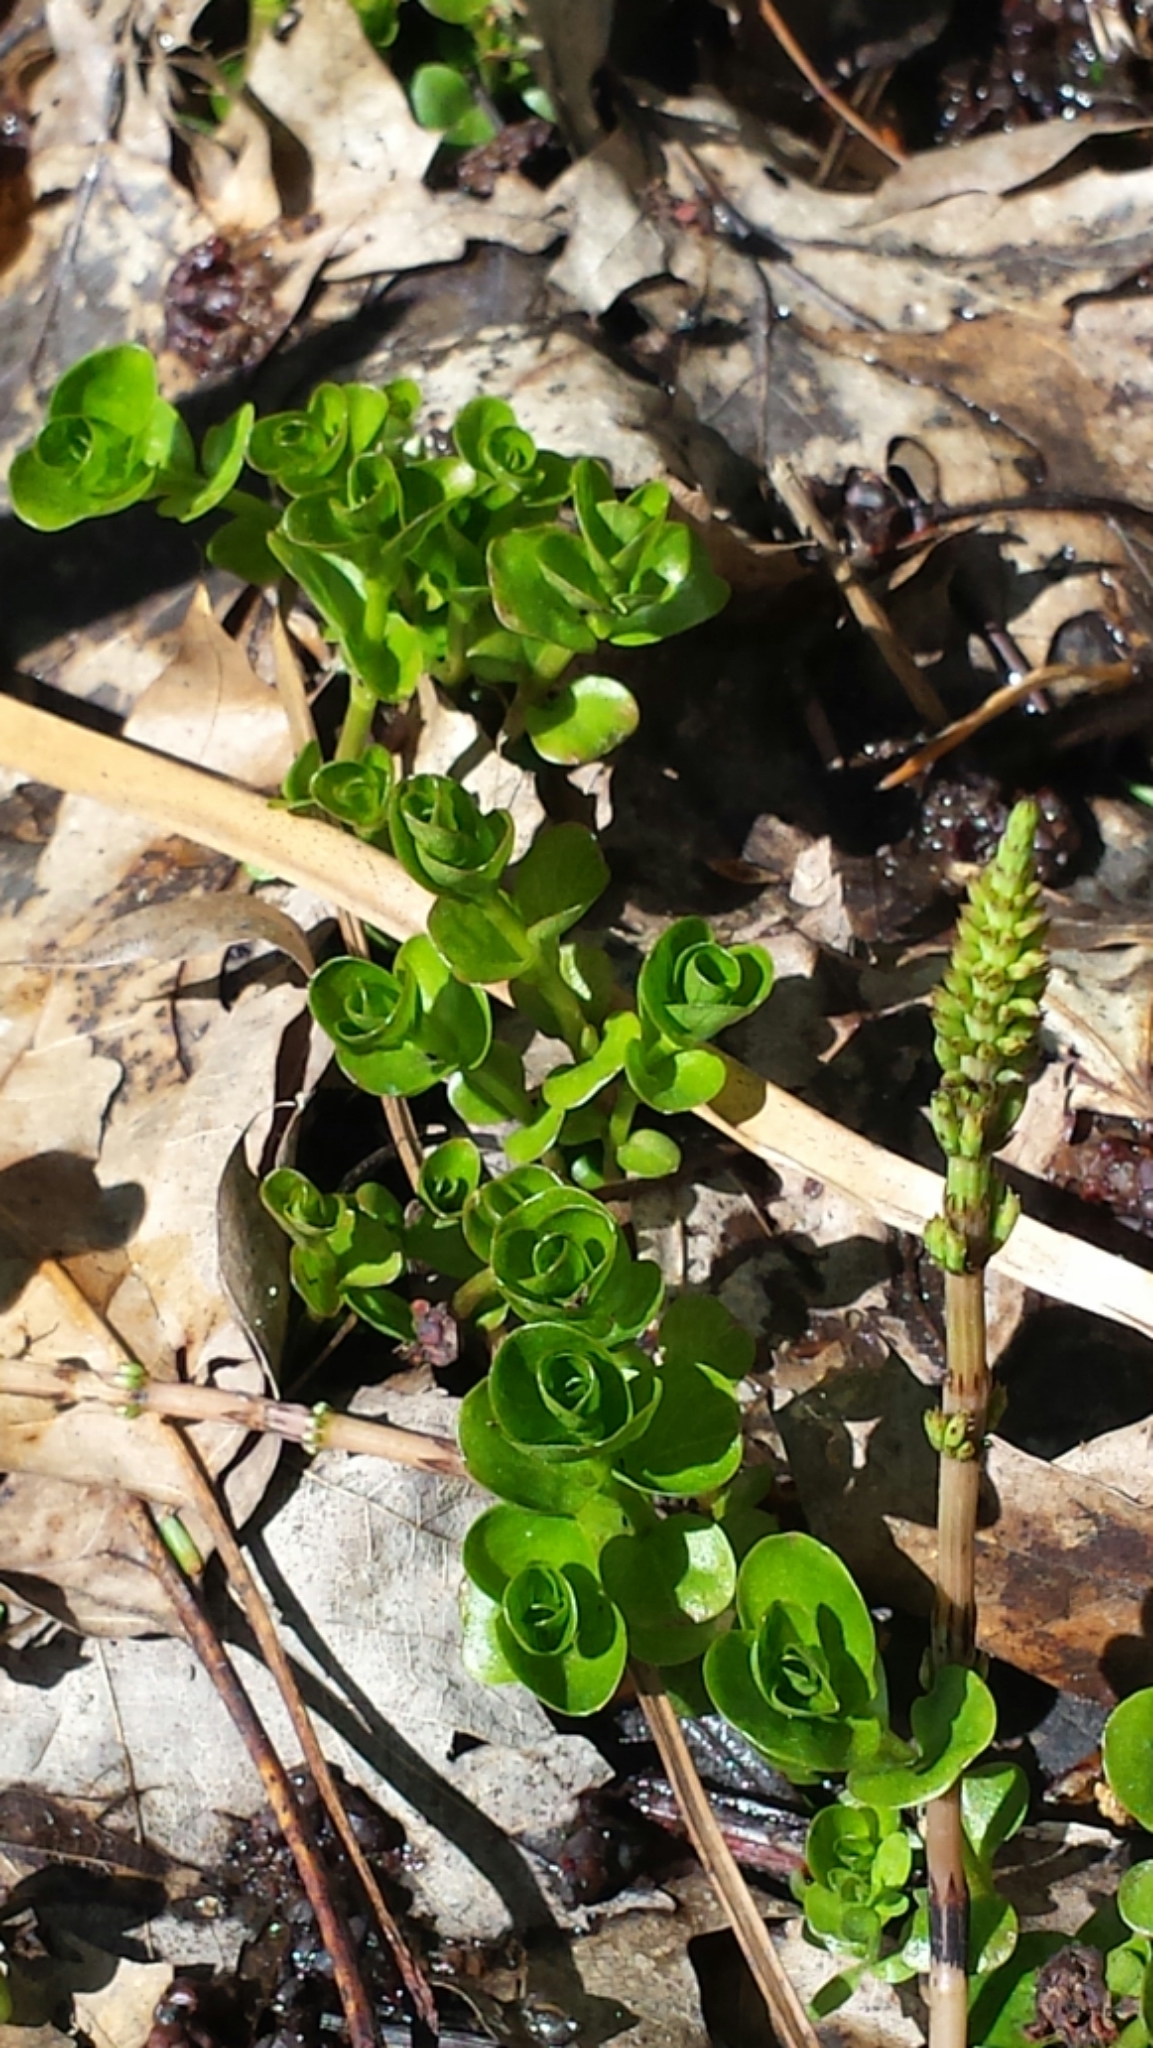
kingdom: Plantae
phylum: Tracheophyta
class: Magnoliopsida
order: Ericales
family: Primulaceae
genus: Lysimachia
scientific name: Lysimachia nummularia
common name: Moneywort
